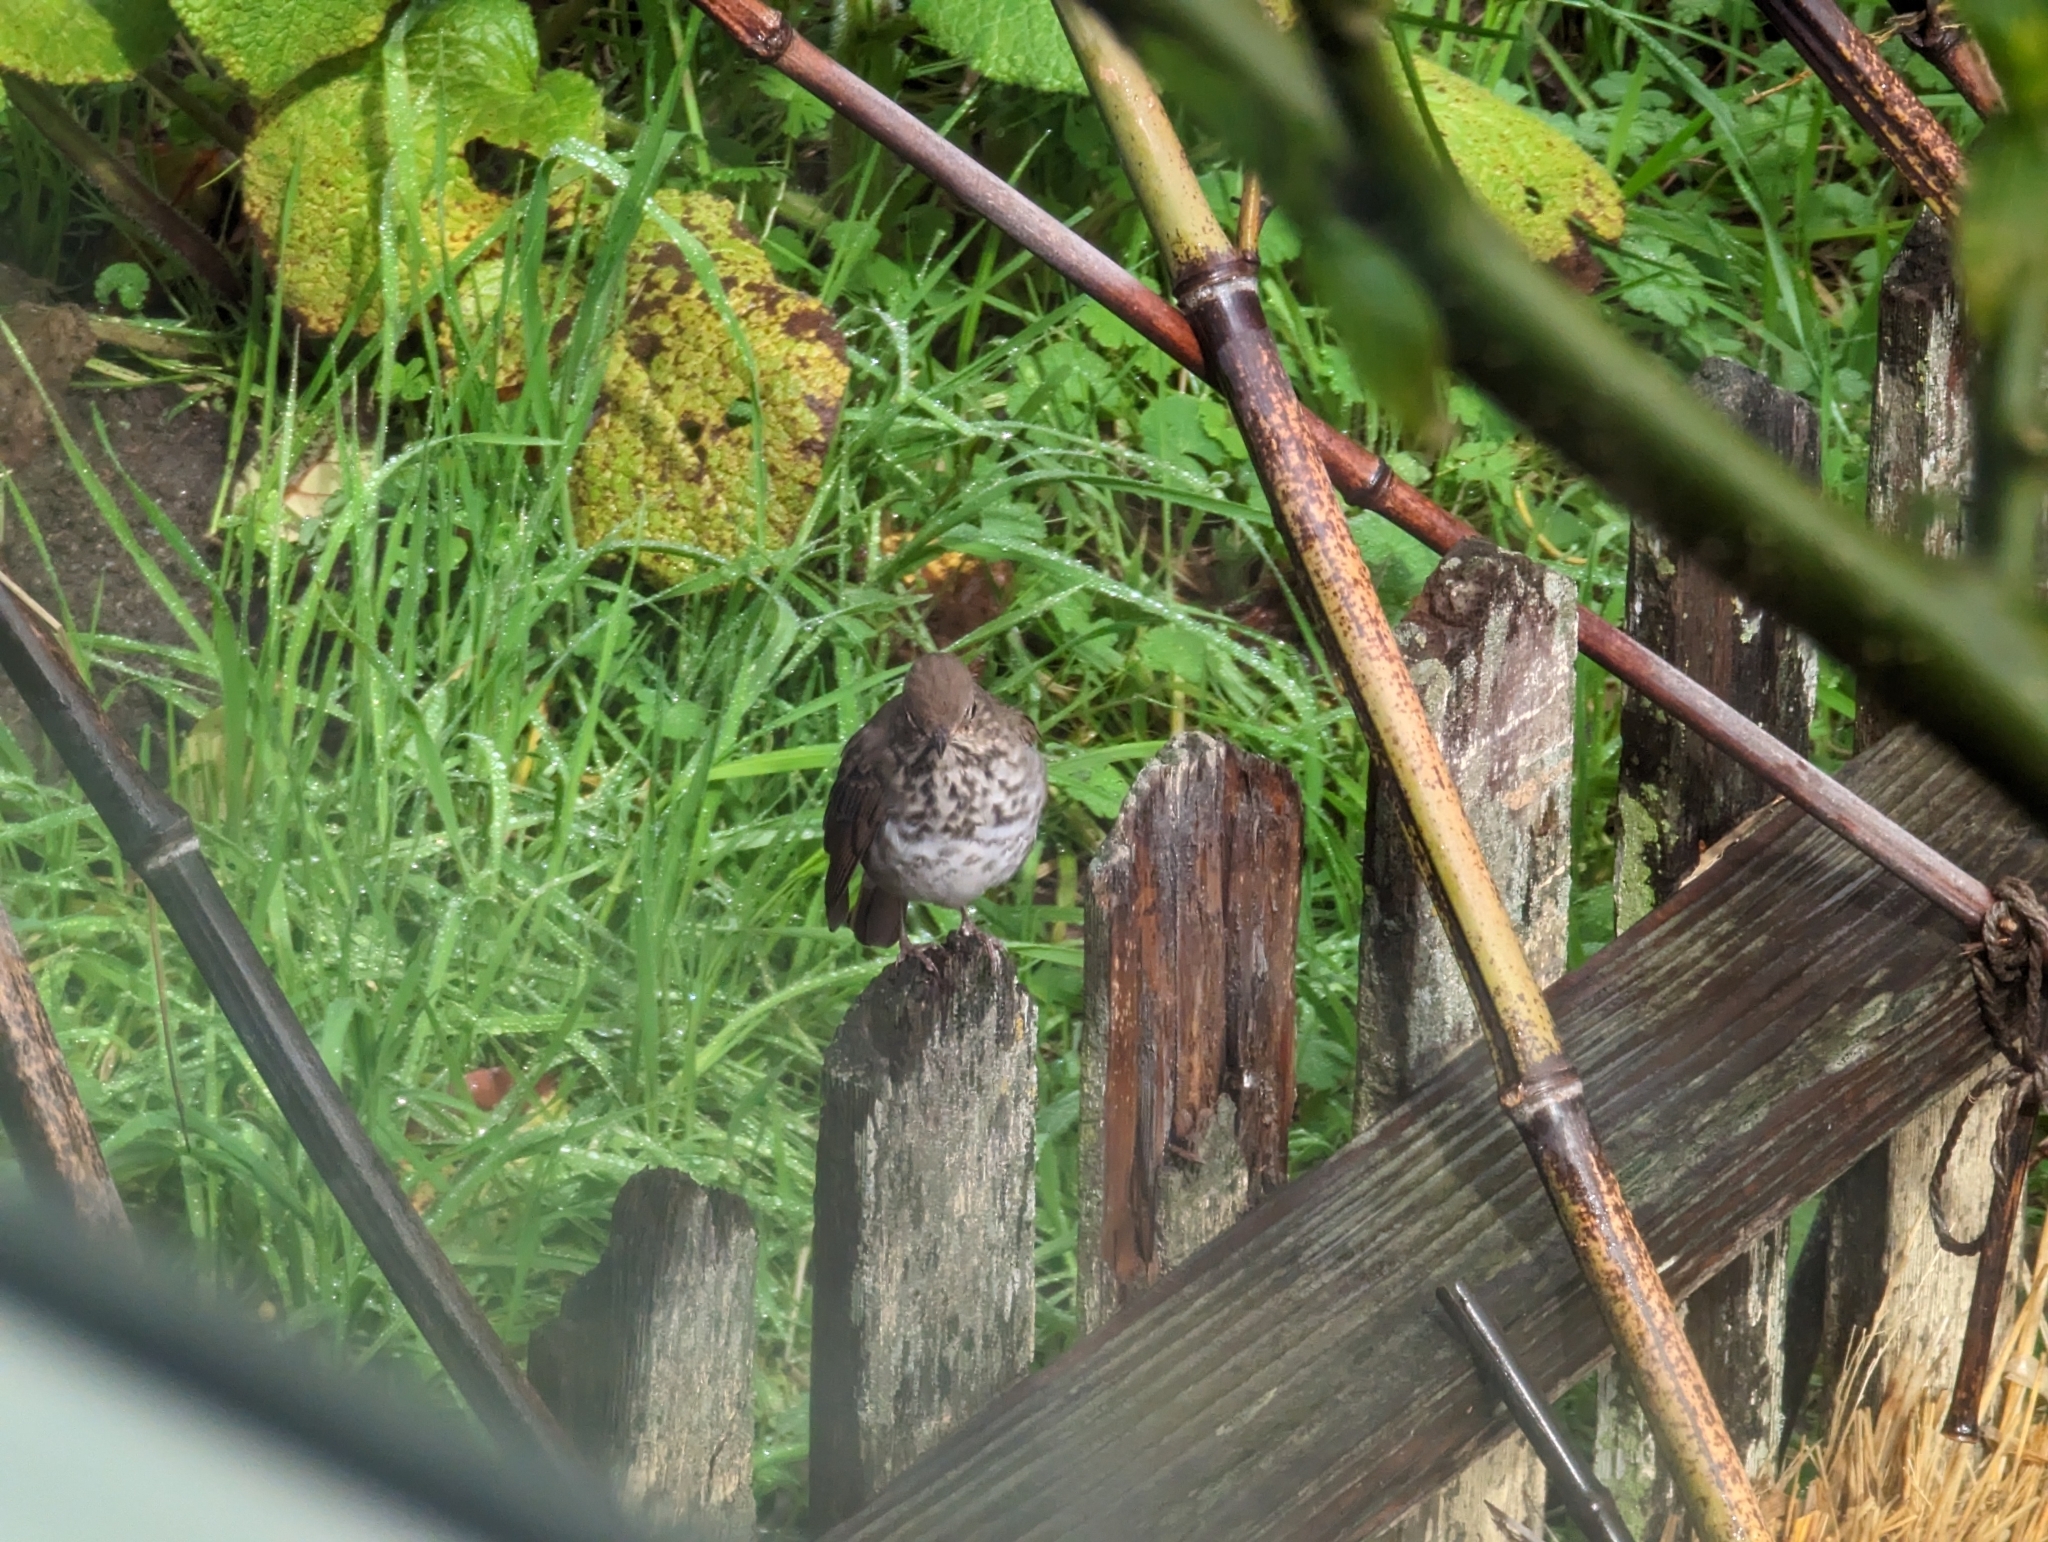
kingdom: Animalia
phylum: Chordata
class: Aves
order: Passeriformes
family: Turdidae
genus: Catharus
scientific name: Catharus guttatus
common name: Hermit thrush
